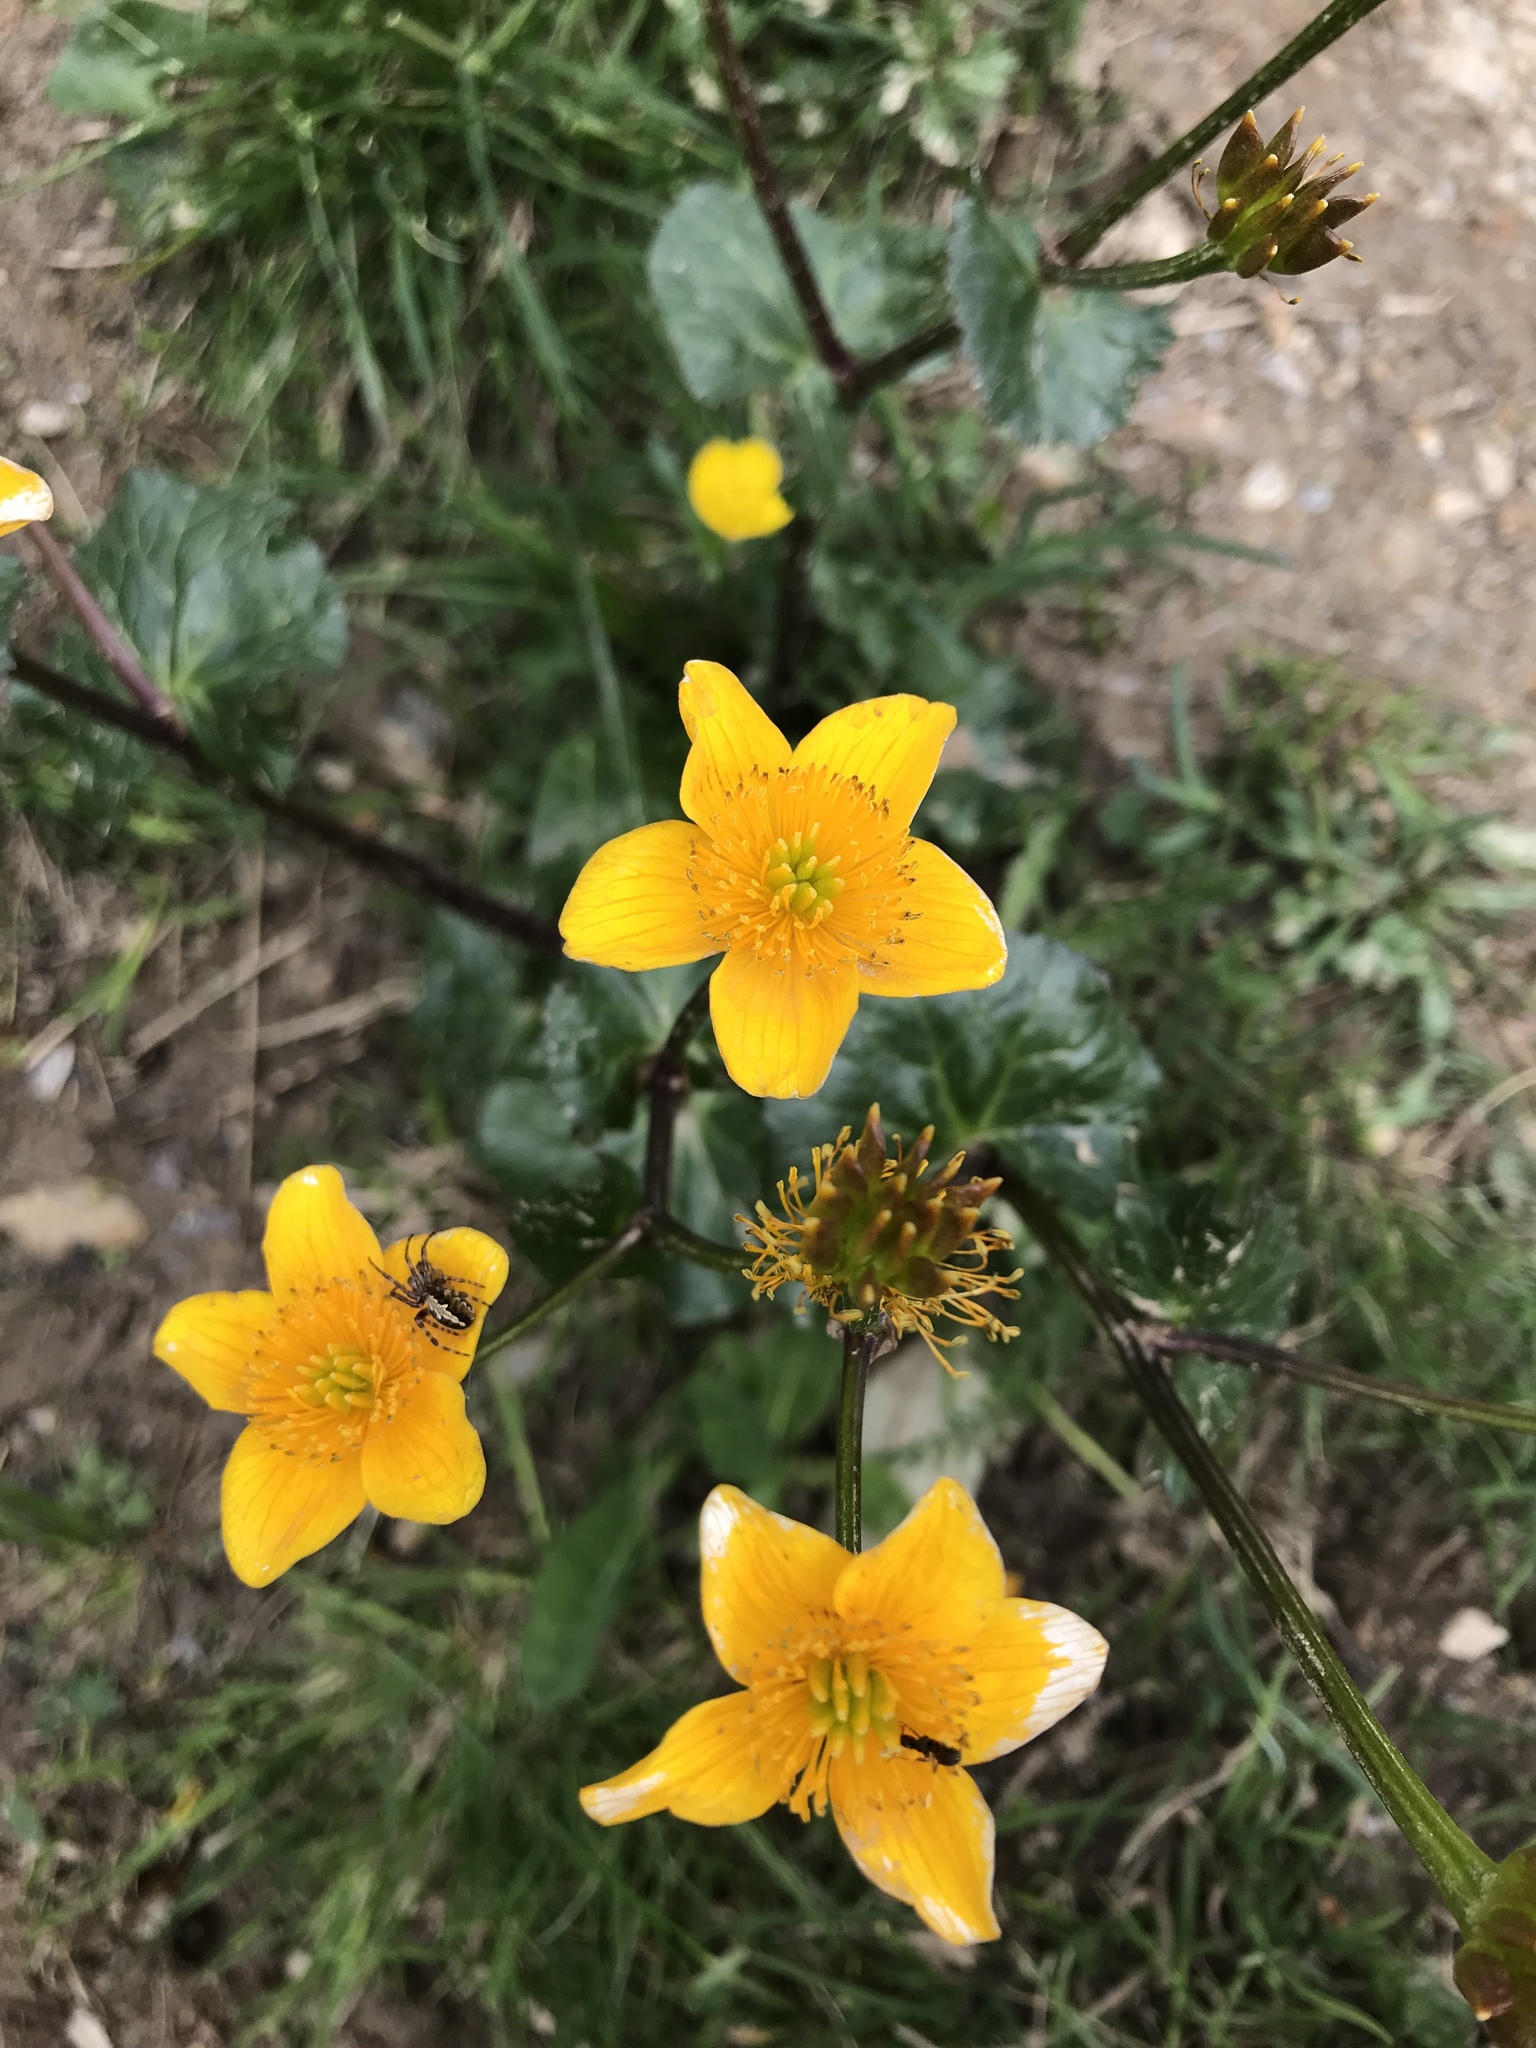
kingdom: Plantae
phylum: Tracheophyta
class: Magnoliopsida
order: Ranunculales
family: Ranunculaceae
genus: Caltha
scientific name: Caltha palustris
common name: Marsh marigold
